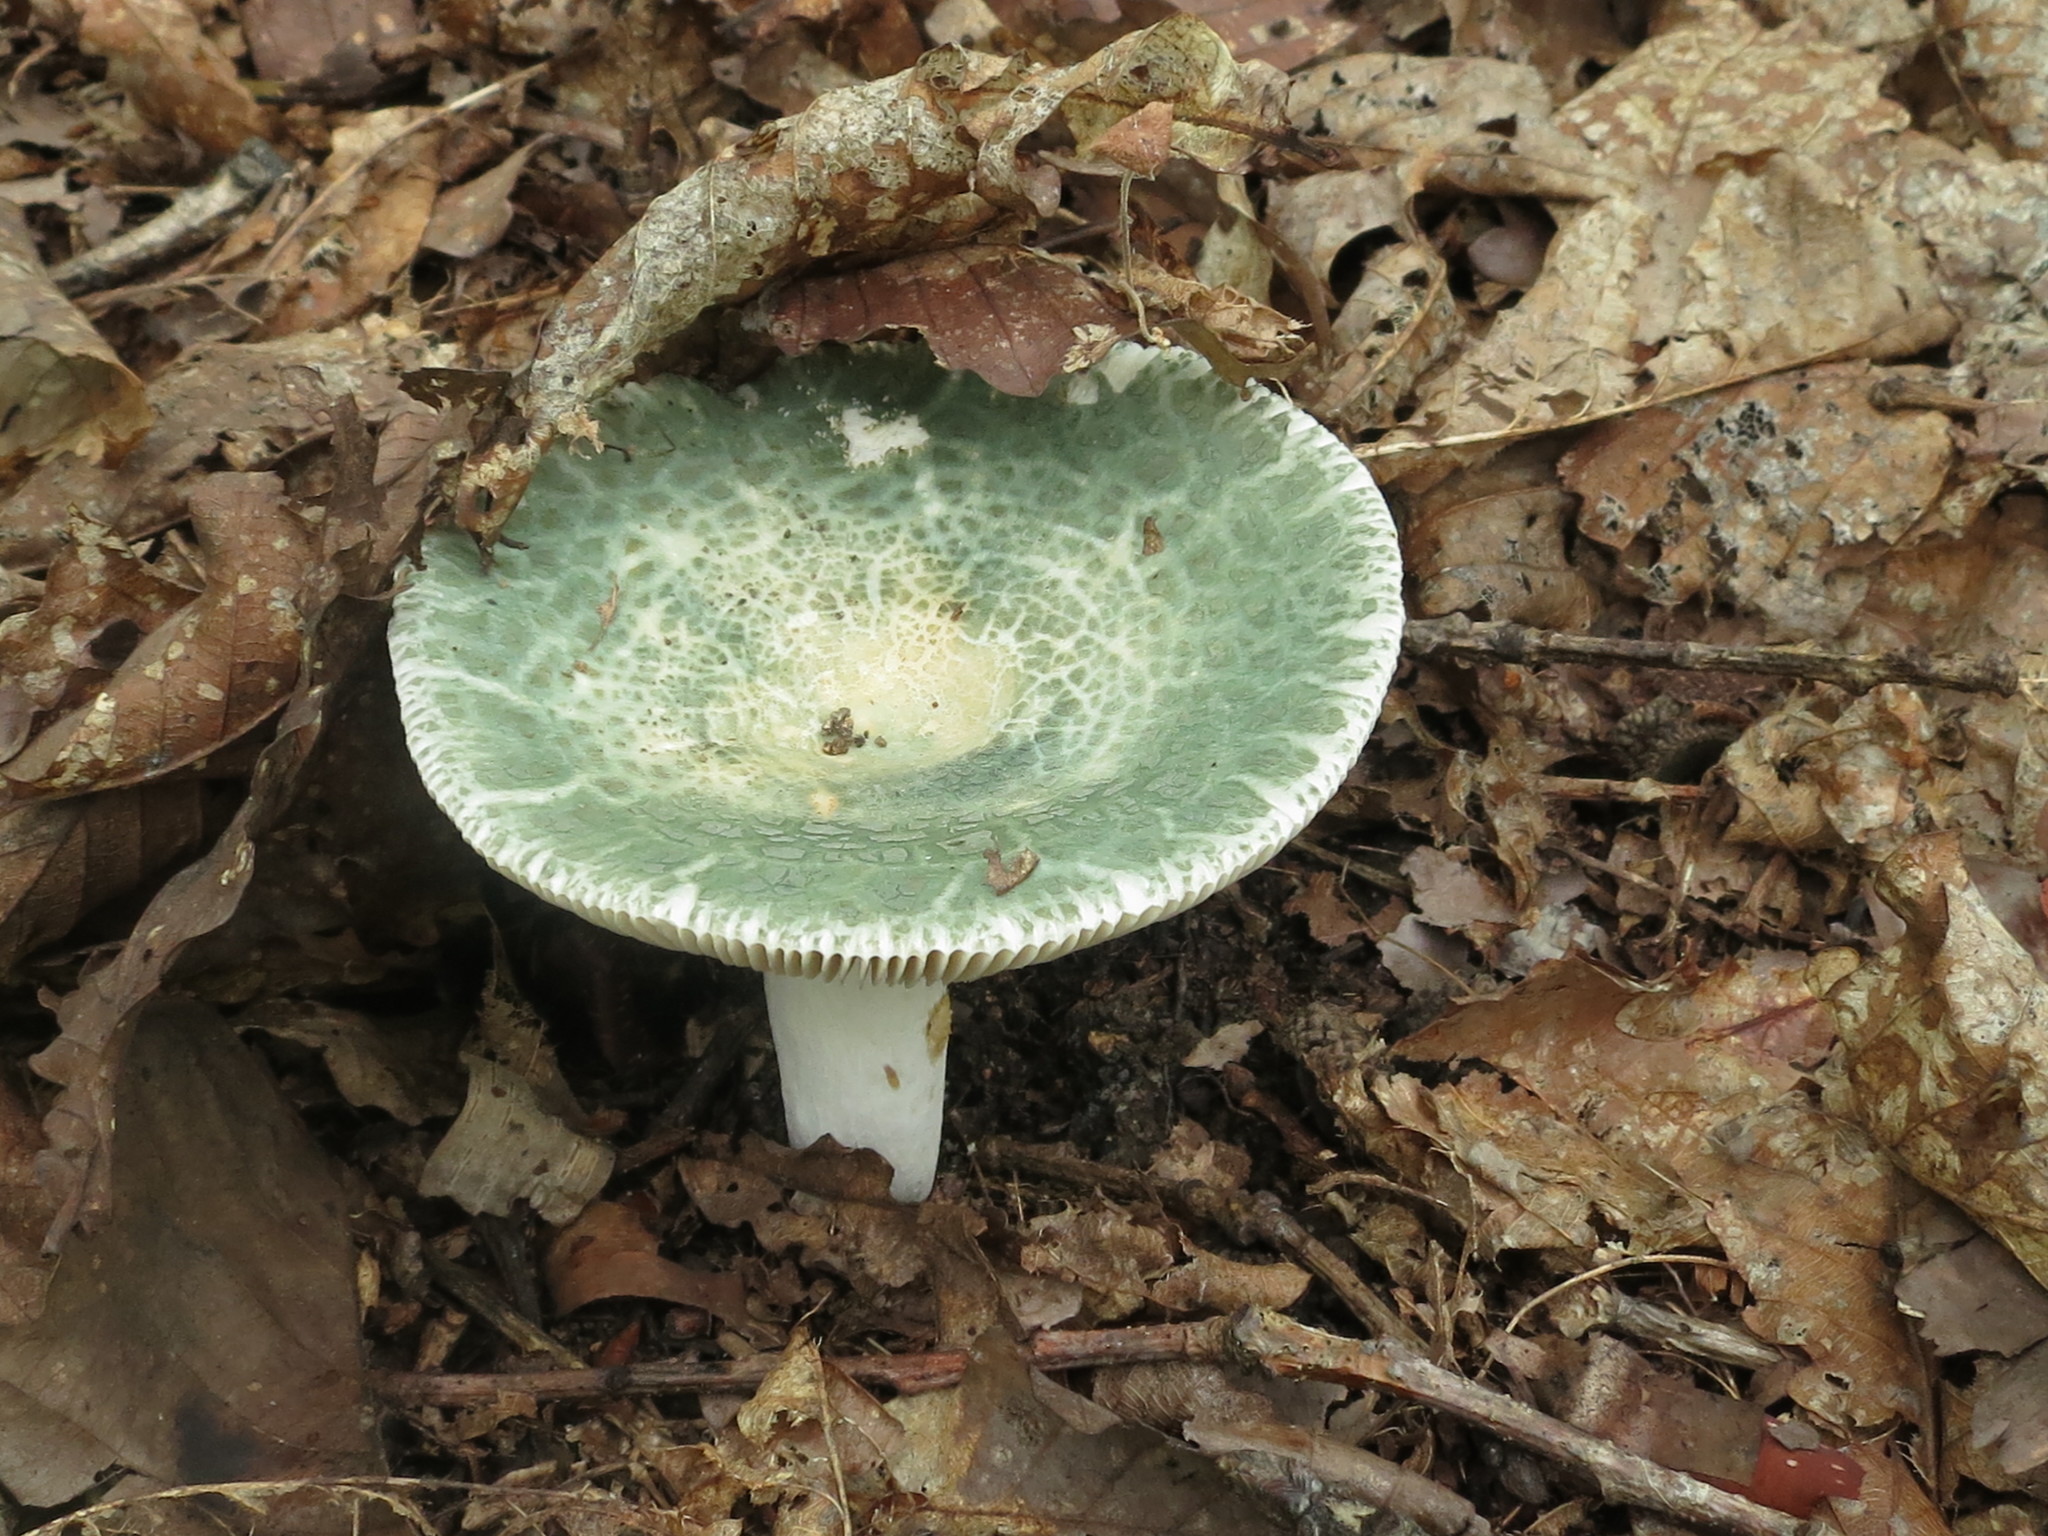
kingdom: Fungi
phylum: Basidiomycota
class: Agaricomycetes
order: Russulales
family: Russulaceae
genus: Russula
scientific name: Russula virescens
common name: Greencracked brittlegill
